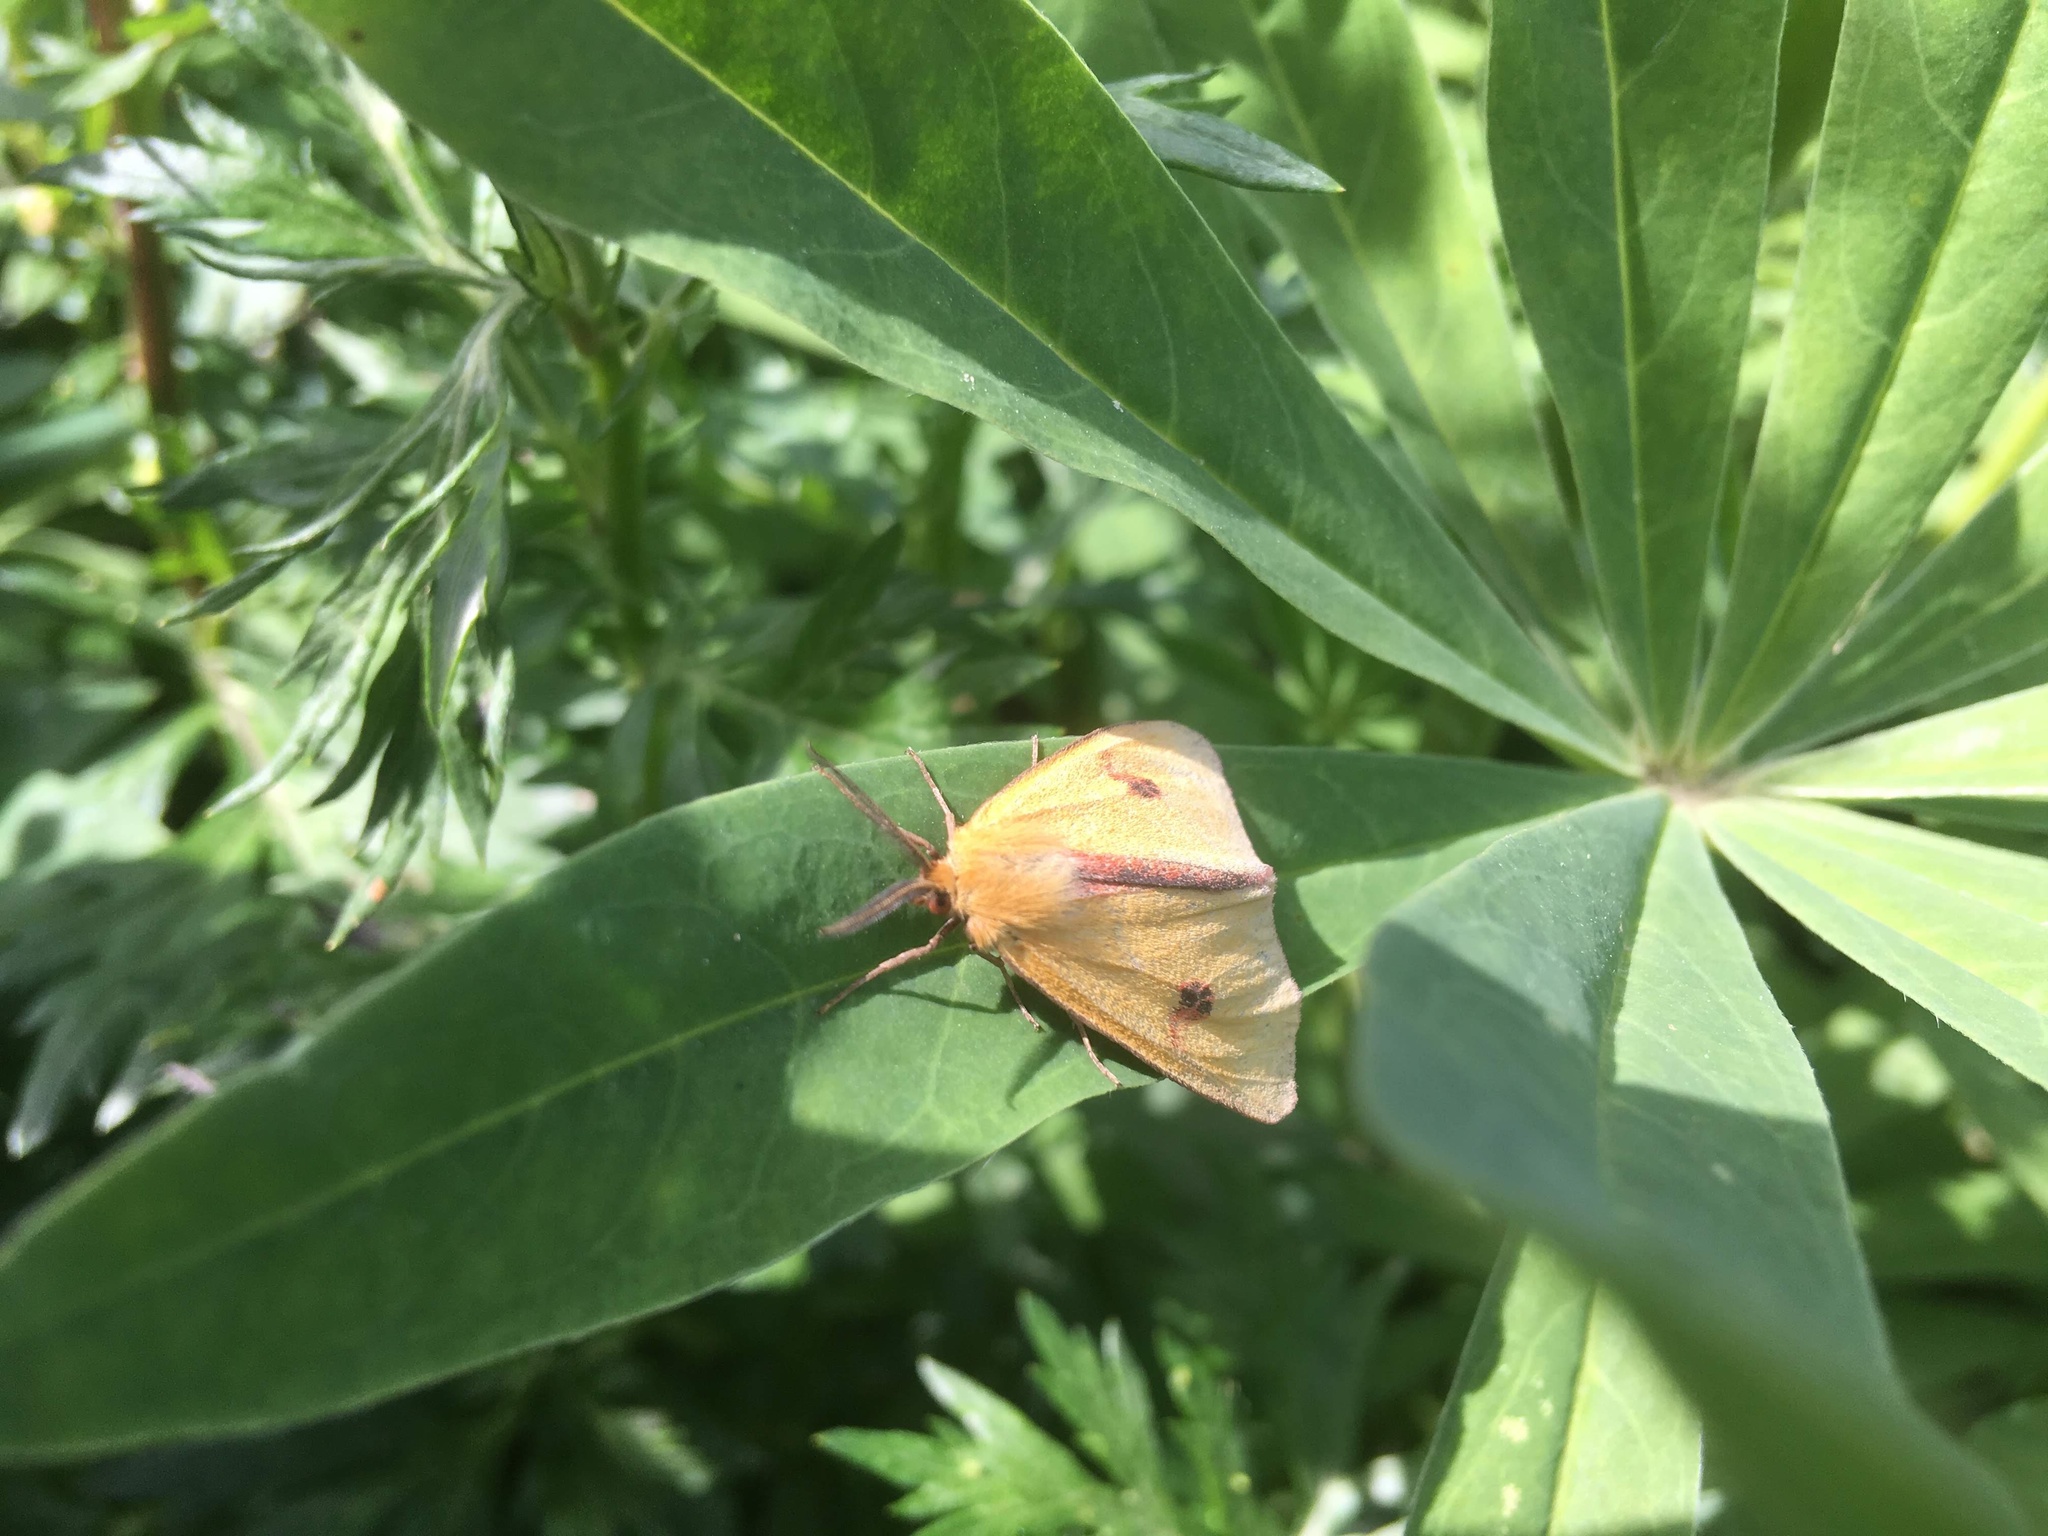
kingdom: Animalia
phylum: Arthropoda
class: Insecta
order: Lepidoptera
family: Erebidae
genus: Diacrisia
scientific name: Diacrisia sannio
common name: Clouded buff
